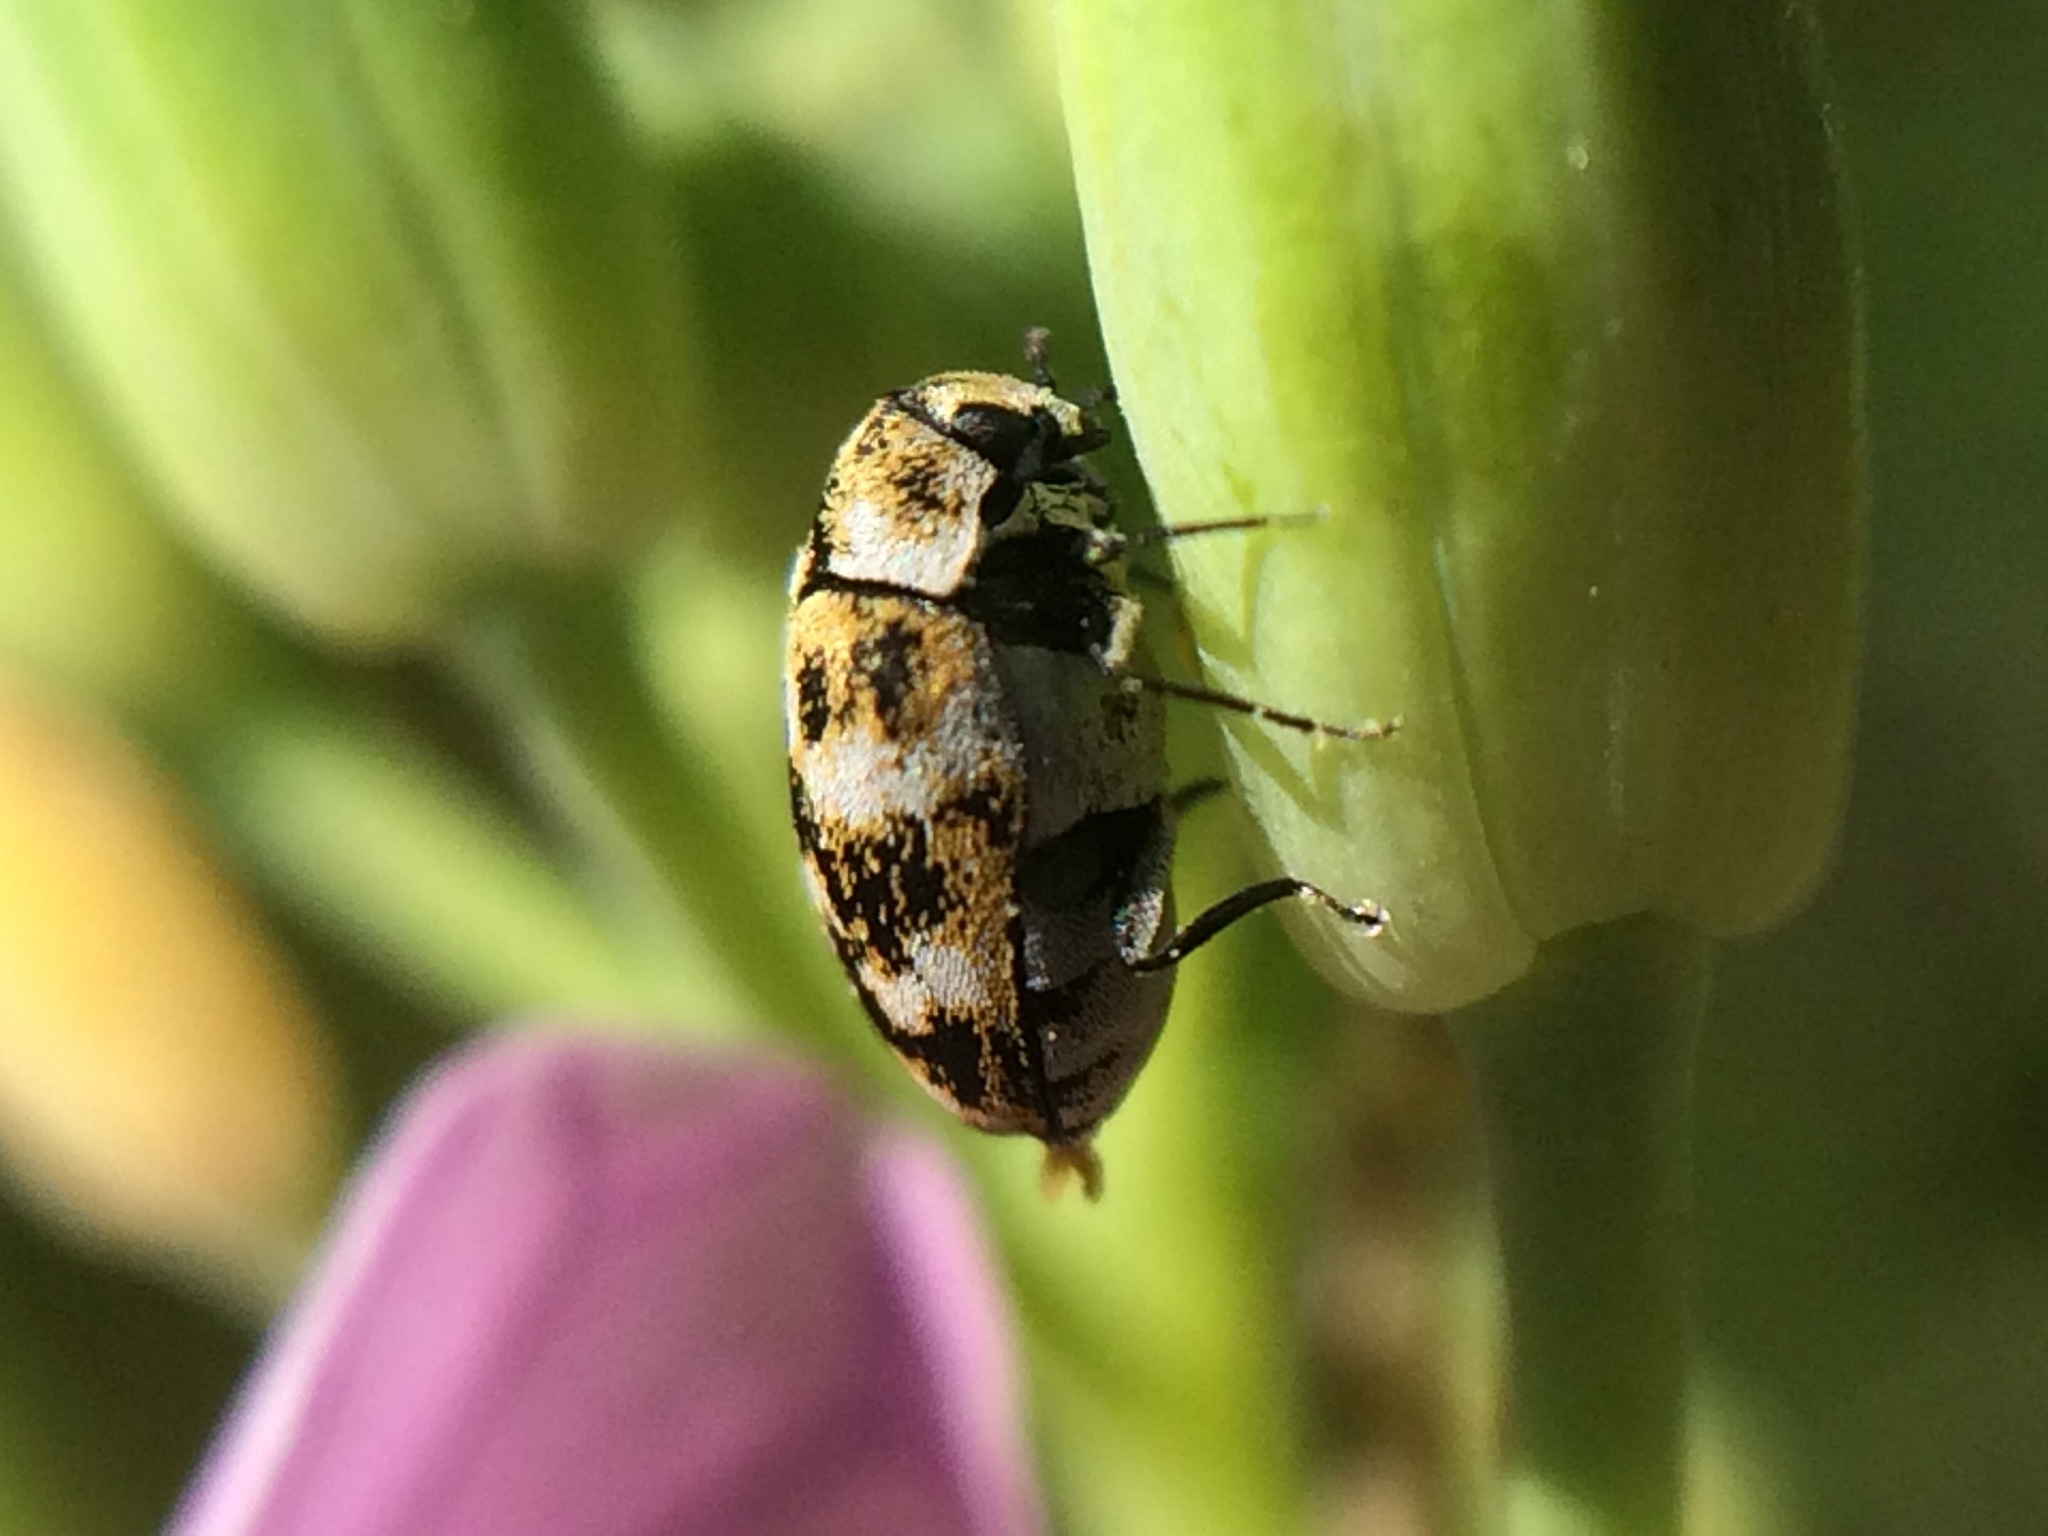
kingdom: Animalia
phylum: Arthropoda
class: Insecta
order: Coleoptera
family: Dermestidae
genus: Anthrenus
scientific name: Anthrenus verbasci
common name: Varied carpet beetle
